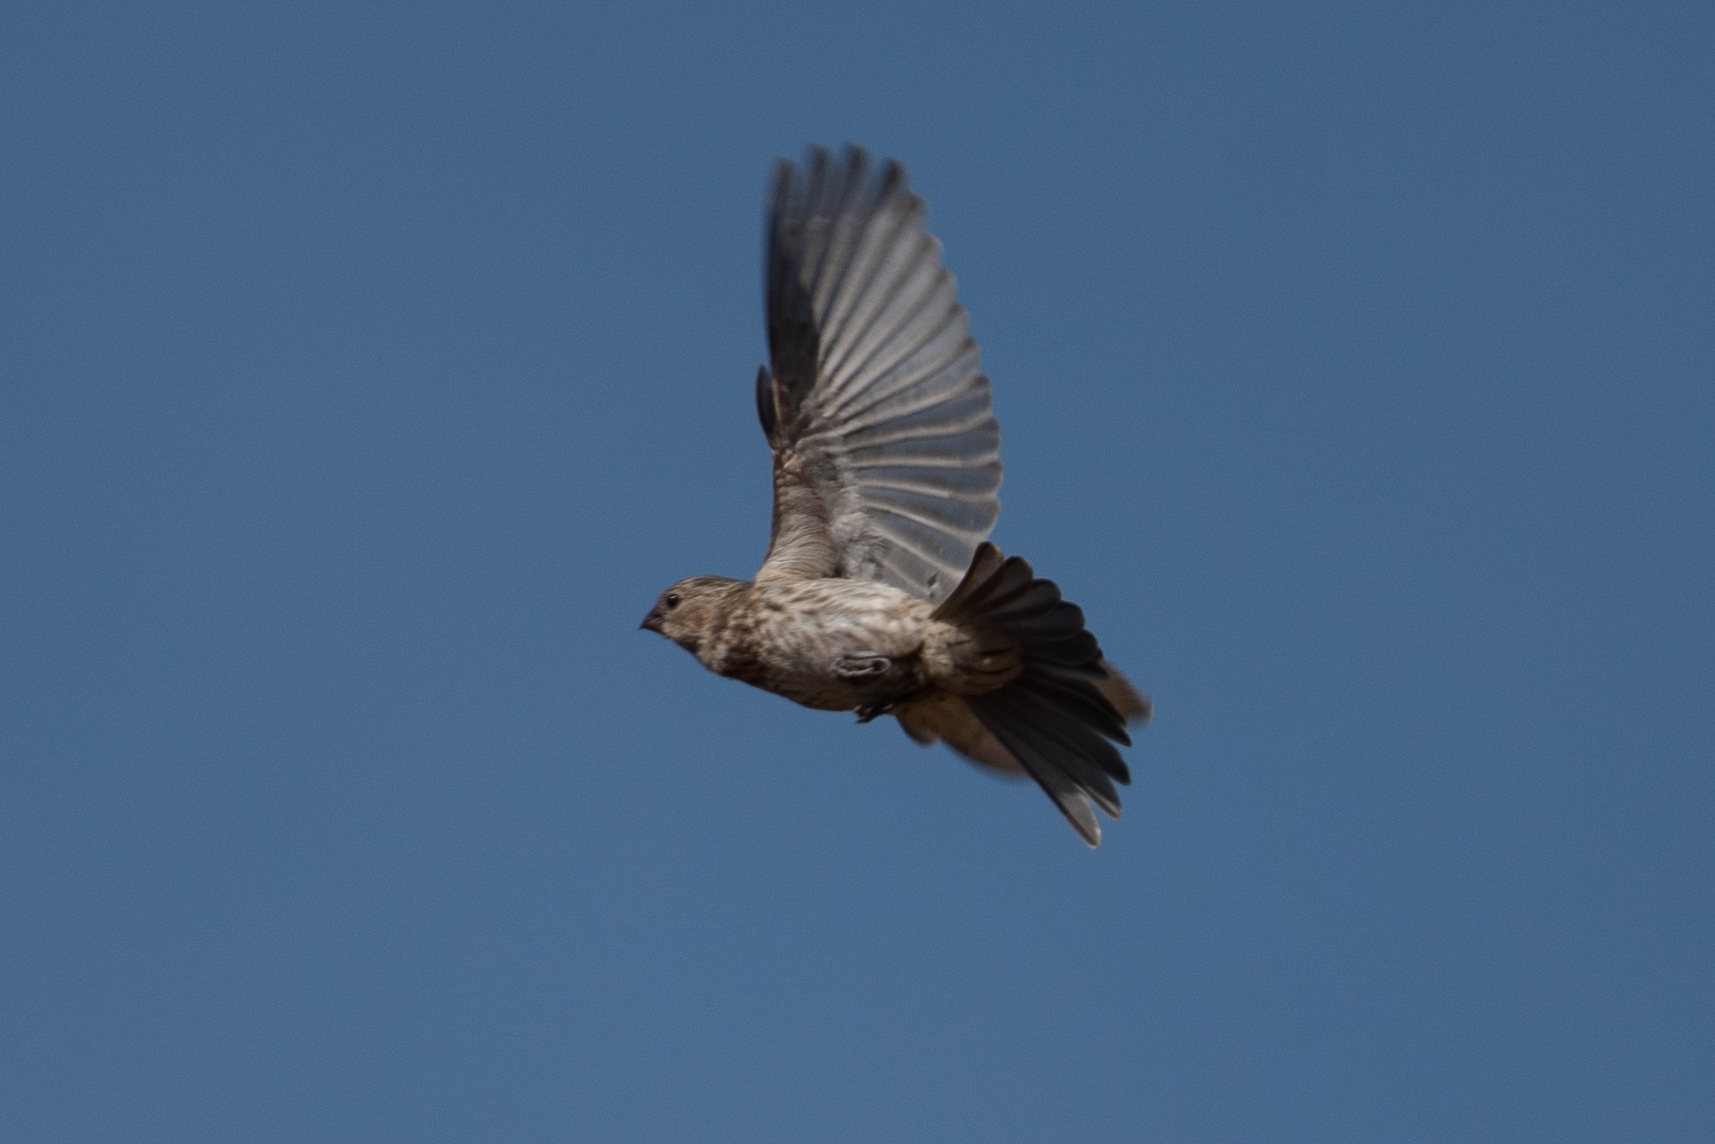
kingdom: Animalia
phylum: Chordata
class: Aves
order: Passeriformes
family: Fringillidae
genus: Haemorhous
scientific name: Haemorhous mexicanus
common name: House finch
